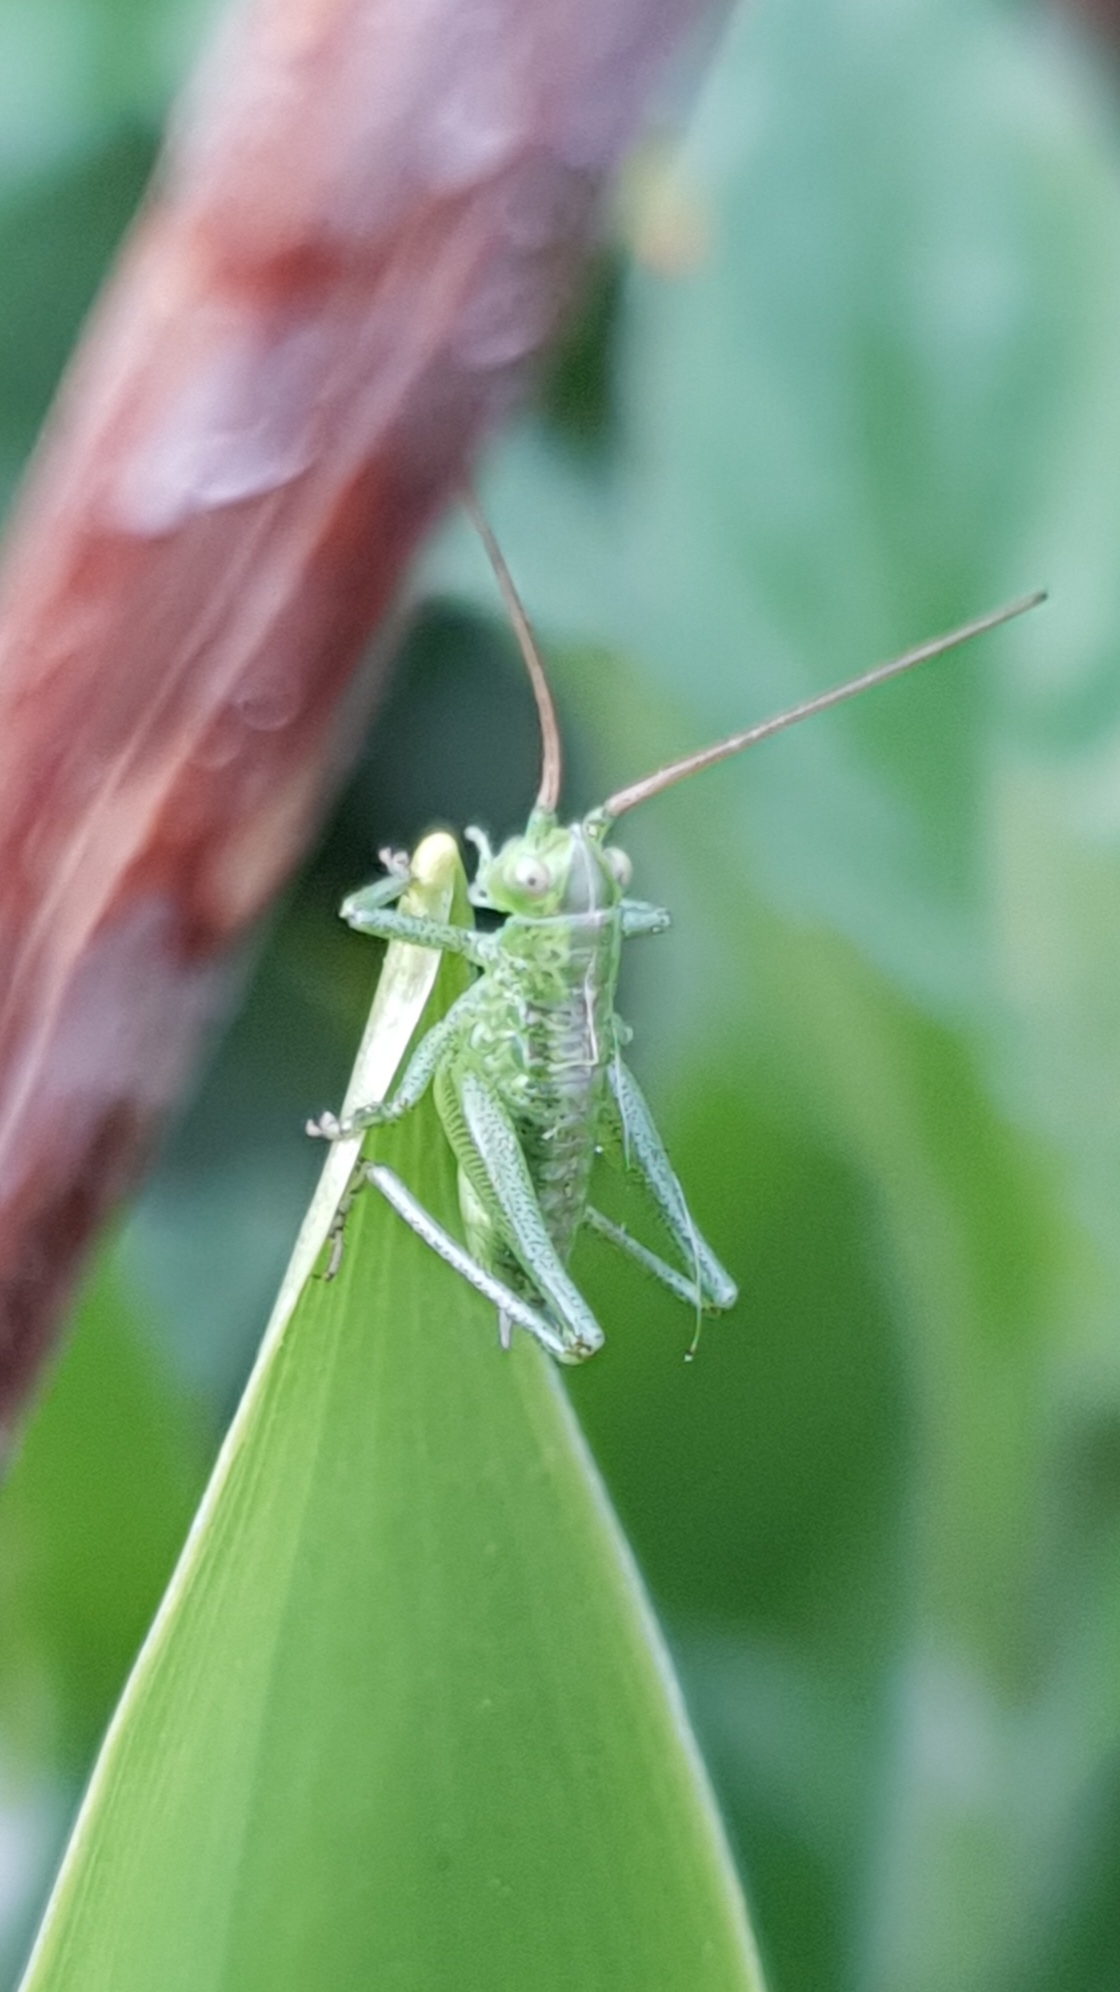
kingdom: Animalia
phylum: Arthropoda
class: Insecta
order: Orthoptera
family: Tettigoniidae
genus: Tettigonia
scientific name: Tettigonia viridissima
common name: Great green bush-cricket
